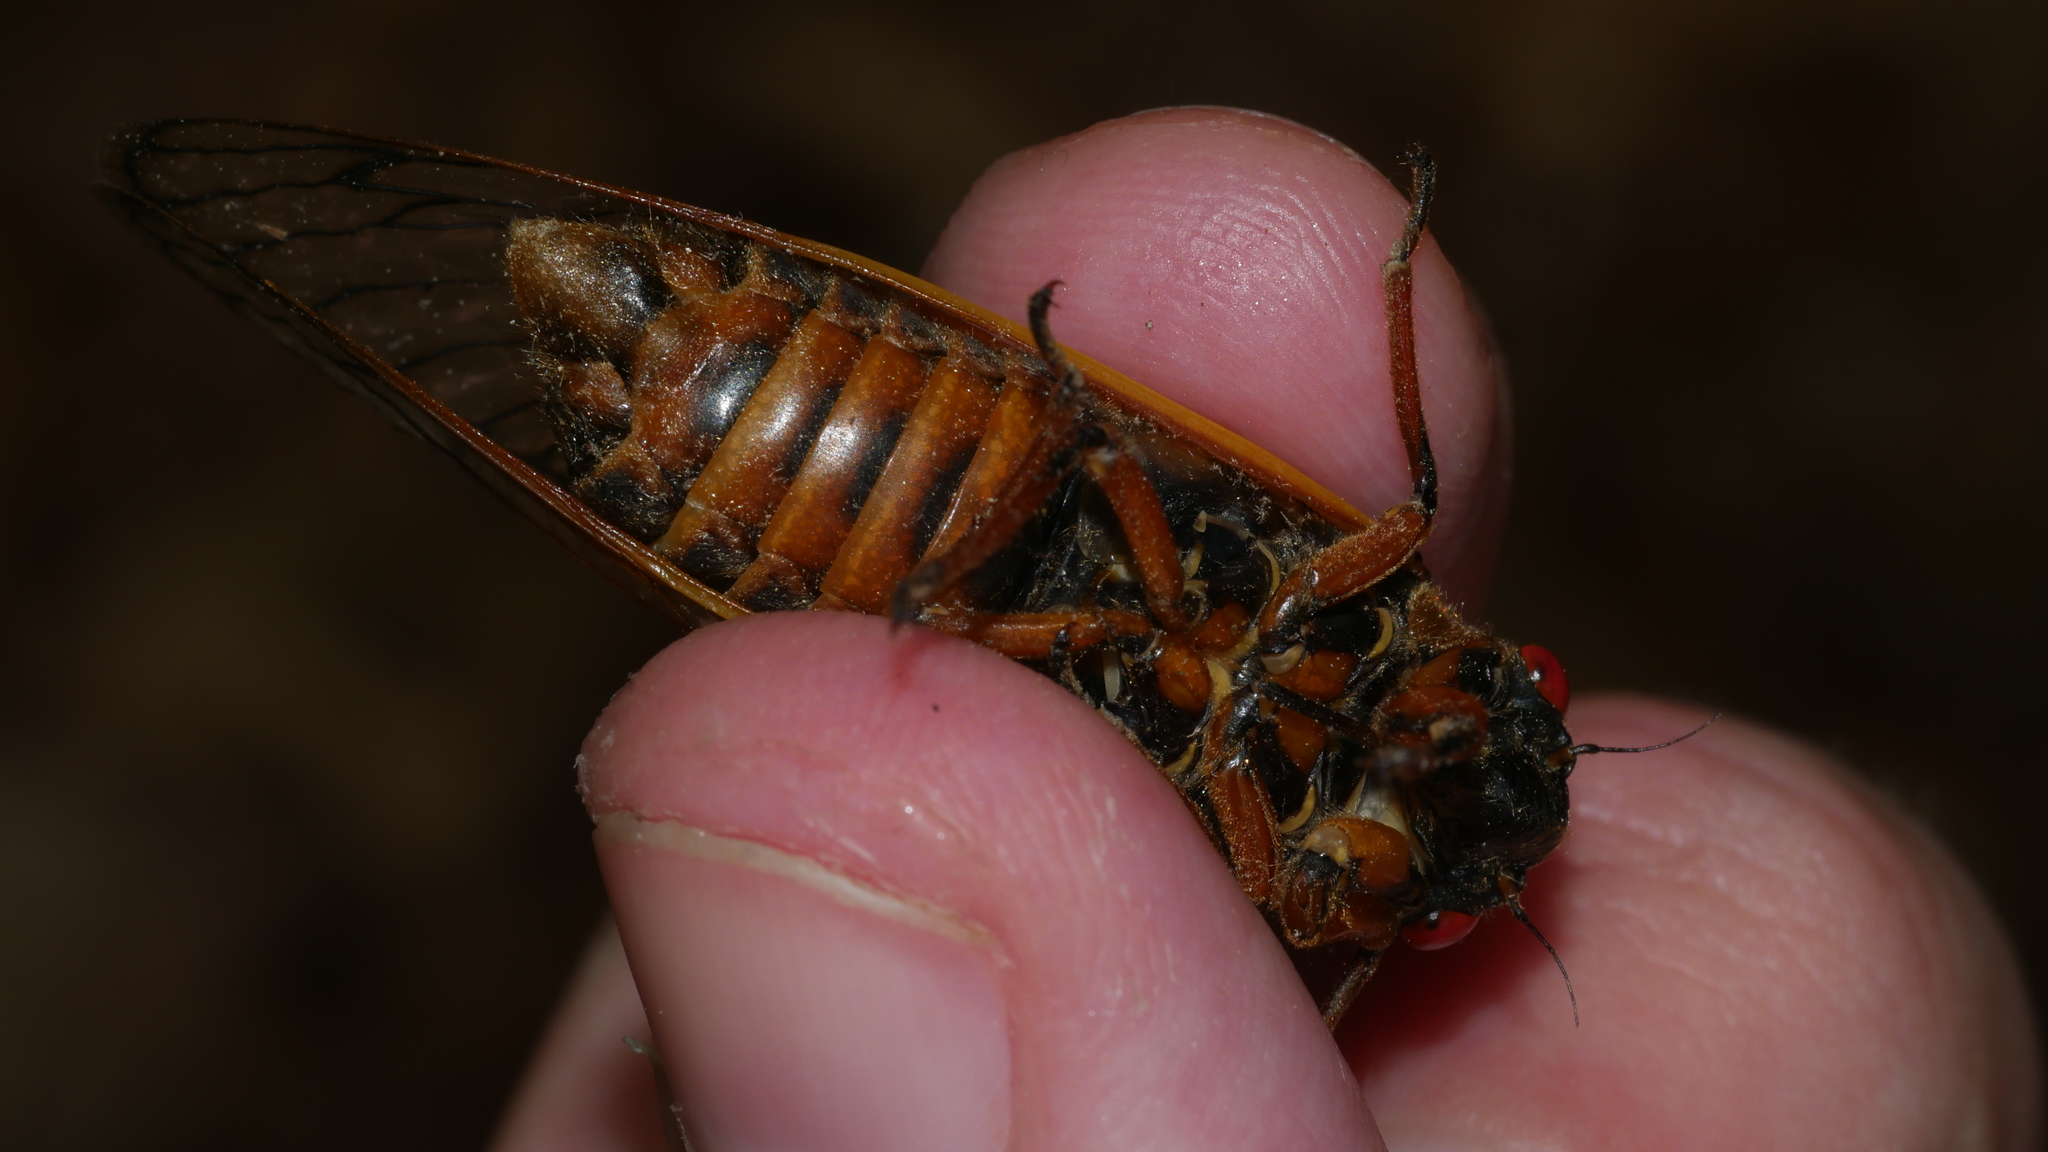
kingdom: Animalia
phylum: Arthropoda
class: Insecta
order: Hemiptera
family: Cicadidae
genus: Magicicada
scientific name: Magicicada septendecim
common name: Periodical cicada
